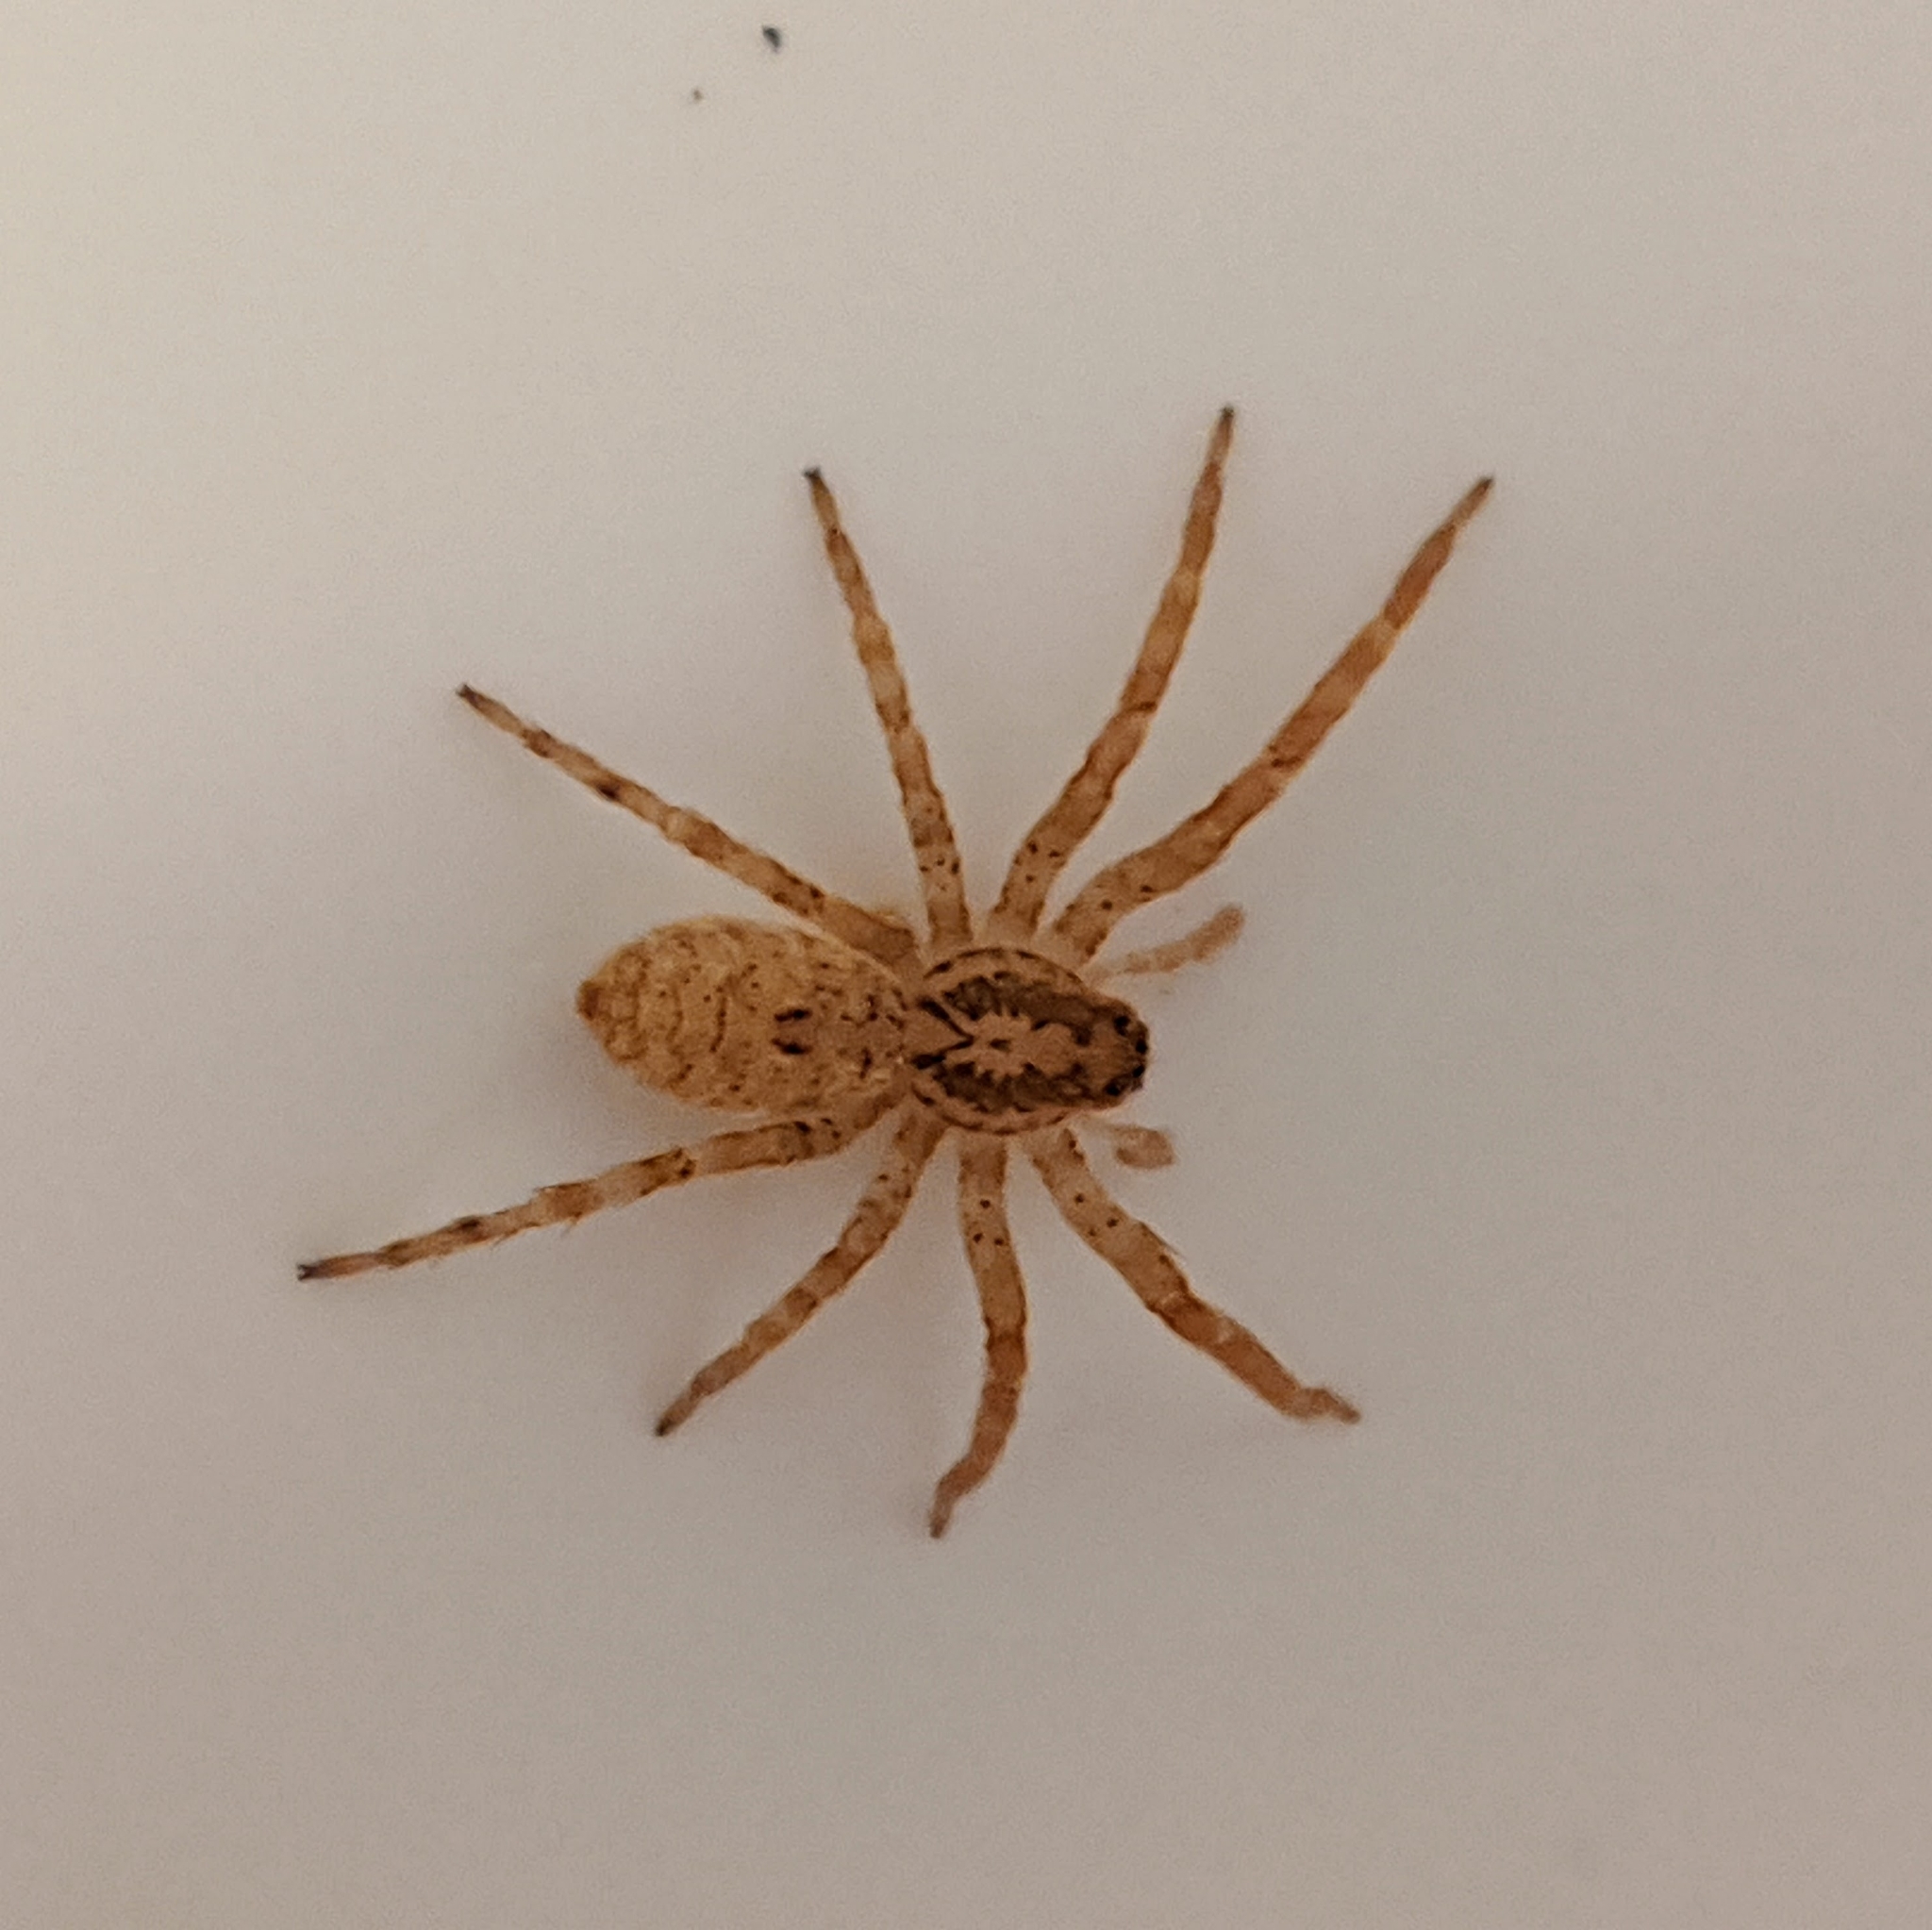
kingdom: Animalia
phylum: Arthropoda
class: Arachnida
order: Araneae
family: Zoropsidae
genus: Zoropsis
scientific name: Zoropsis spinimana
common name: Zoropsid spider
